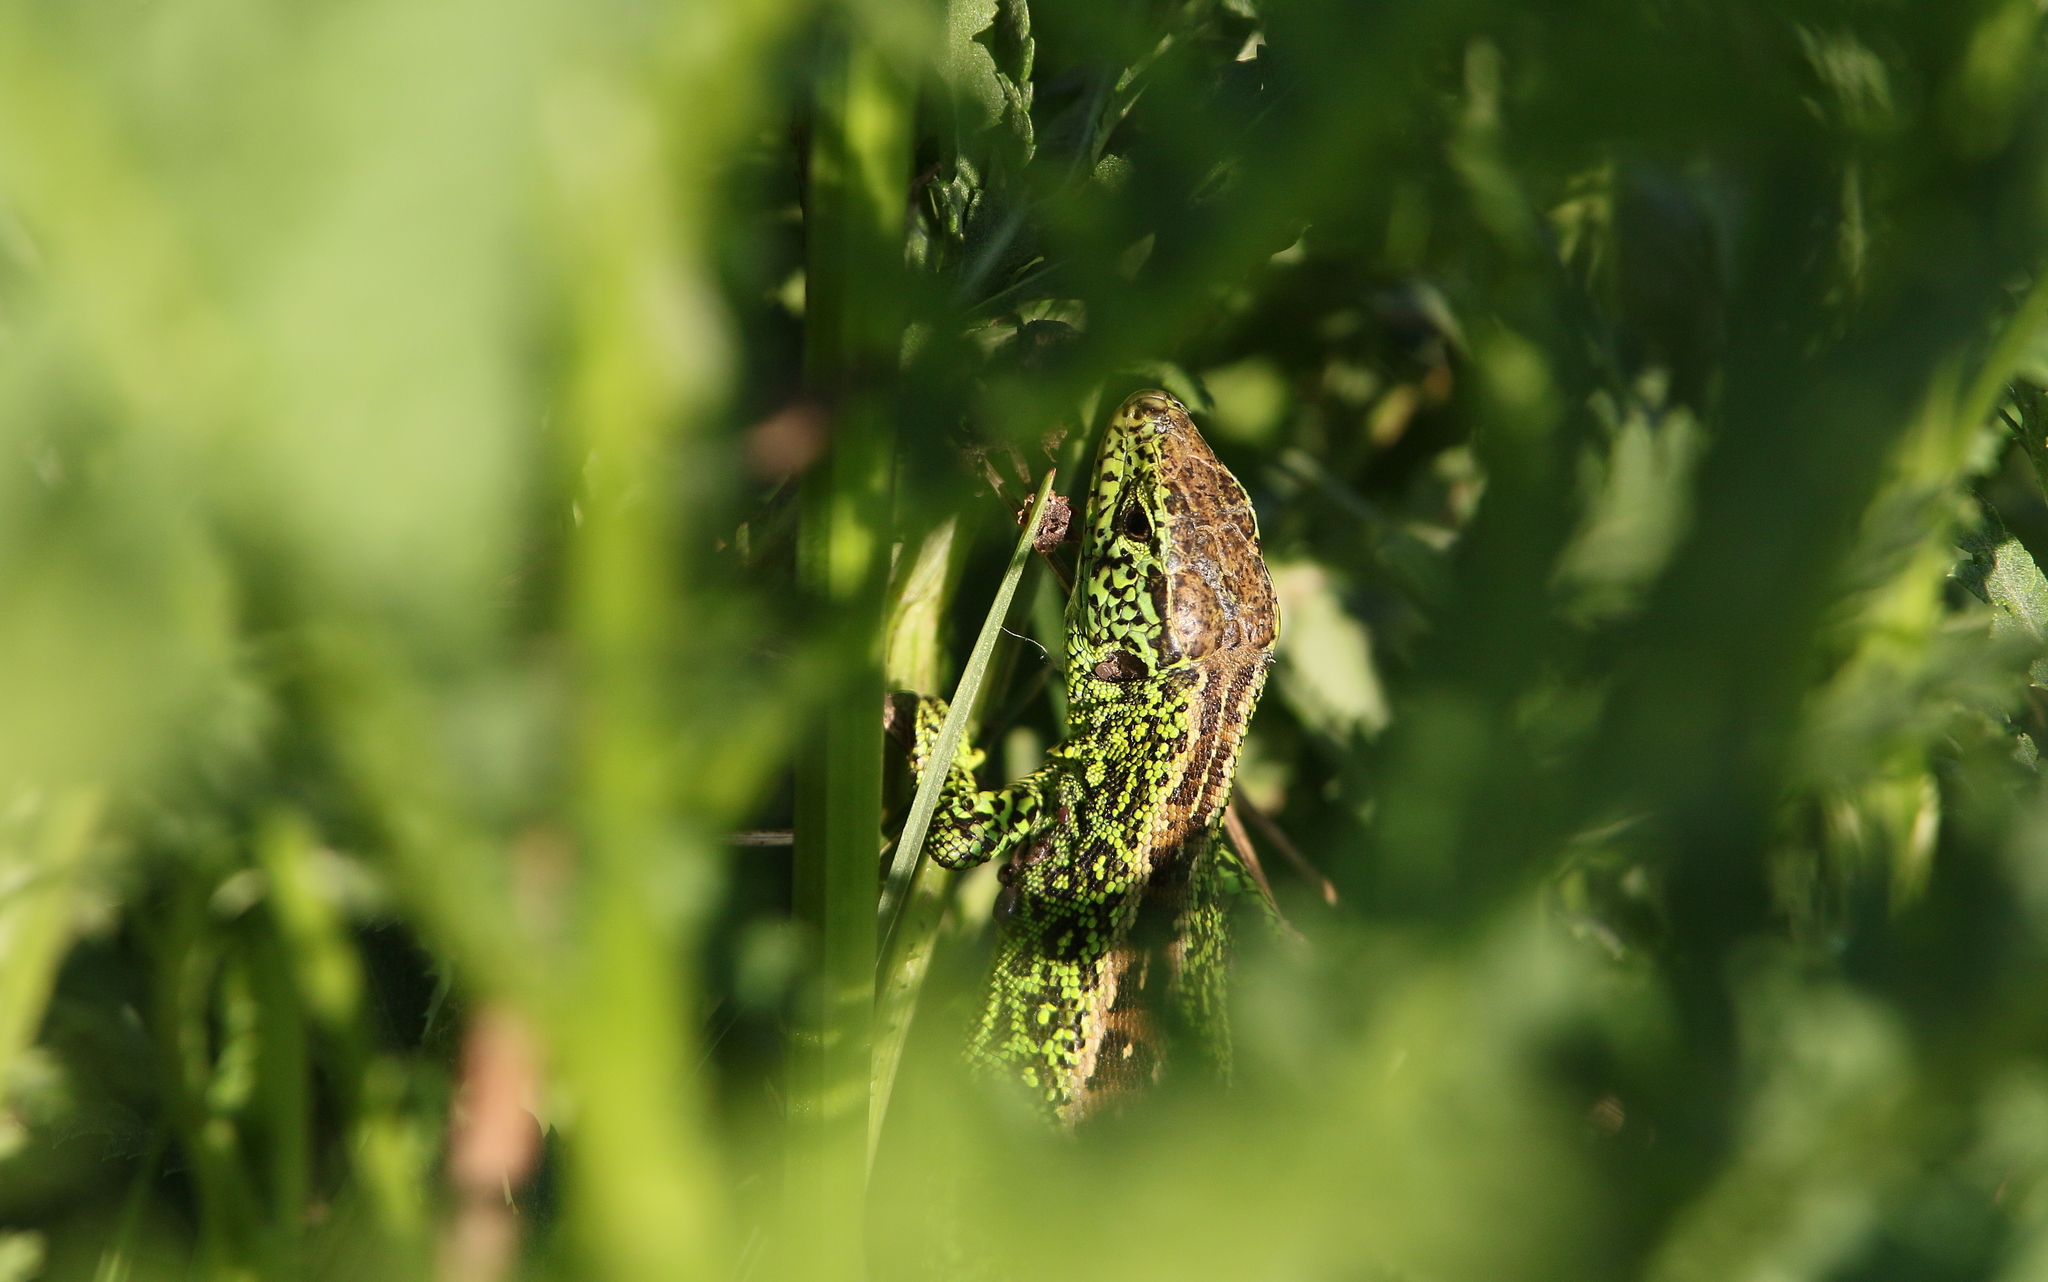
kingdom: Animalia
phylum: Chordata
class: Squamata
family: Lacertidae
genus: Lacerta
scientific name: Lacerta agilis
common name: Sand lizard
